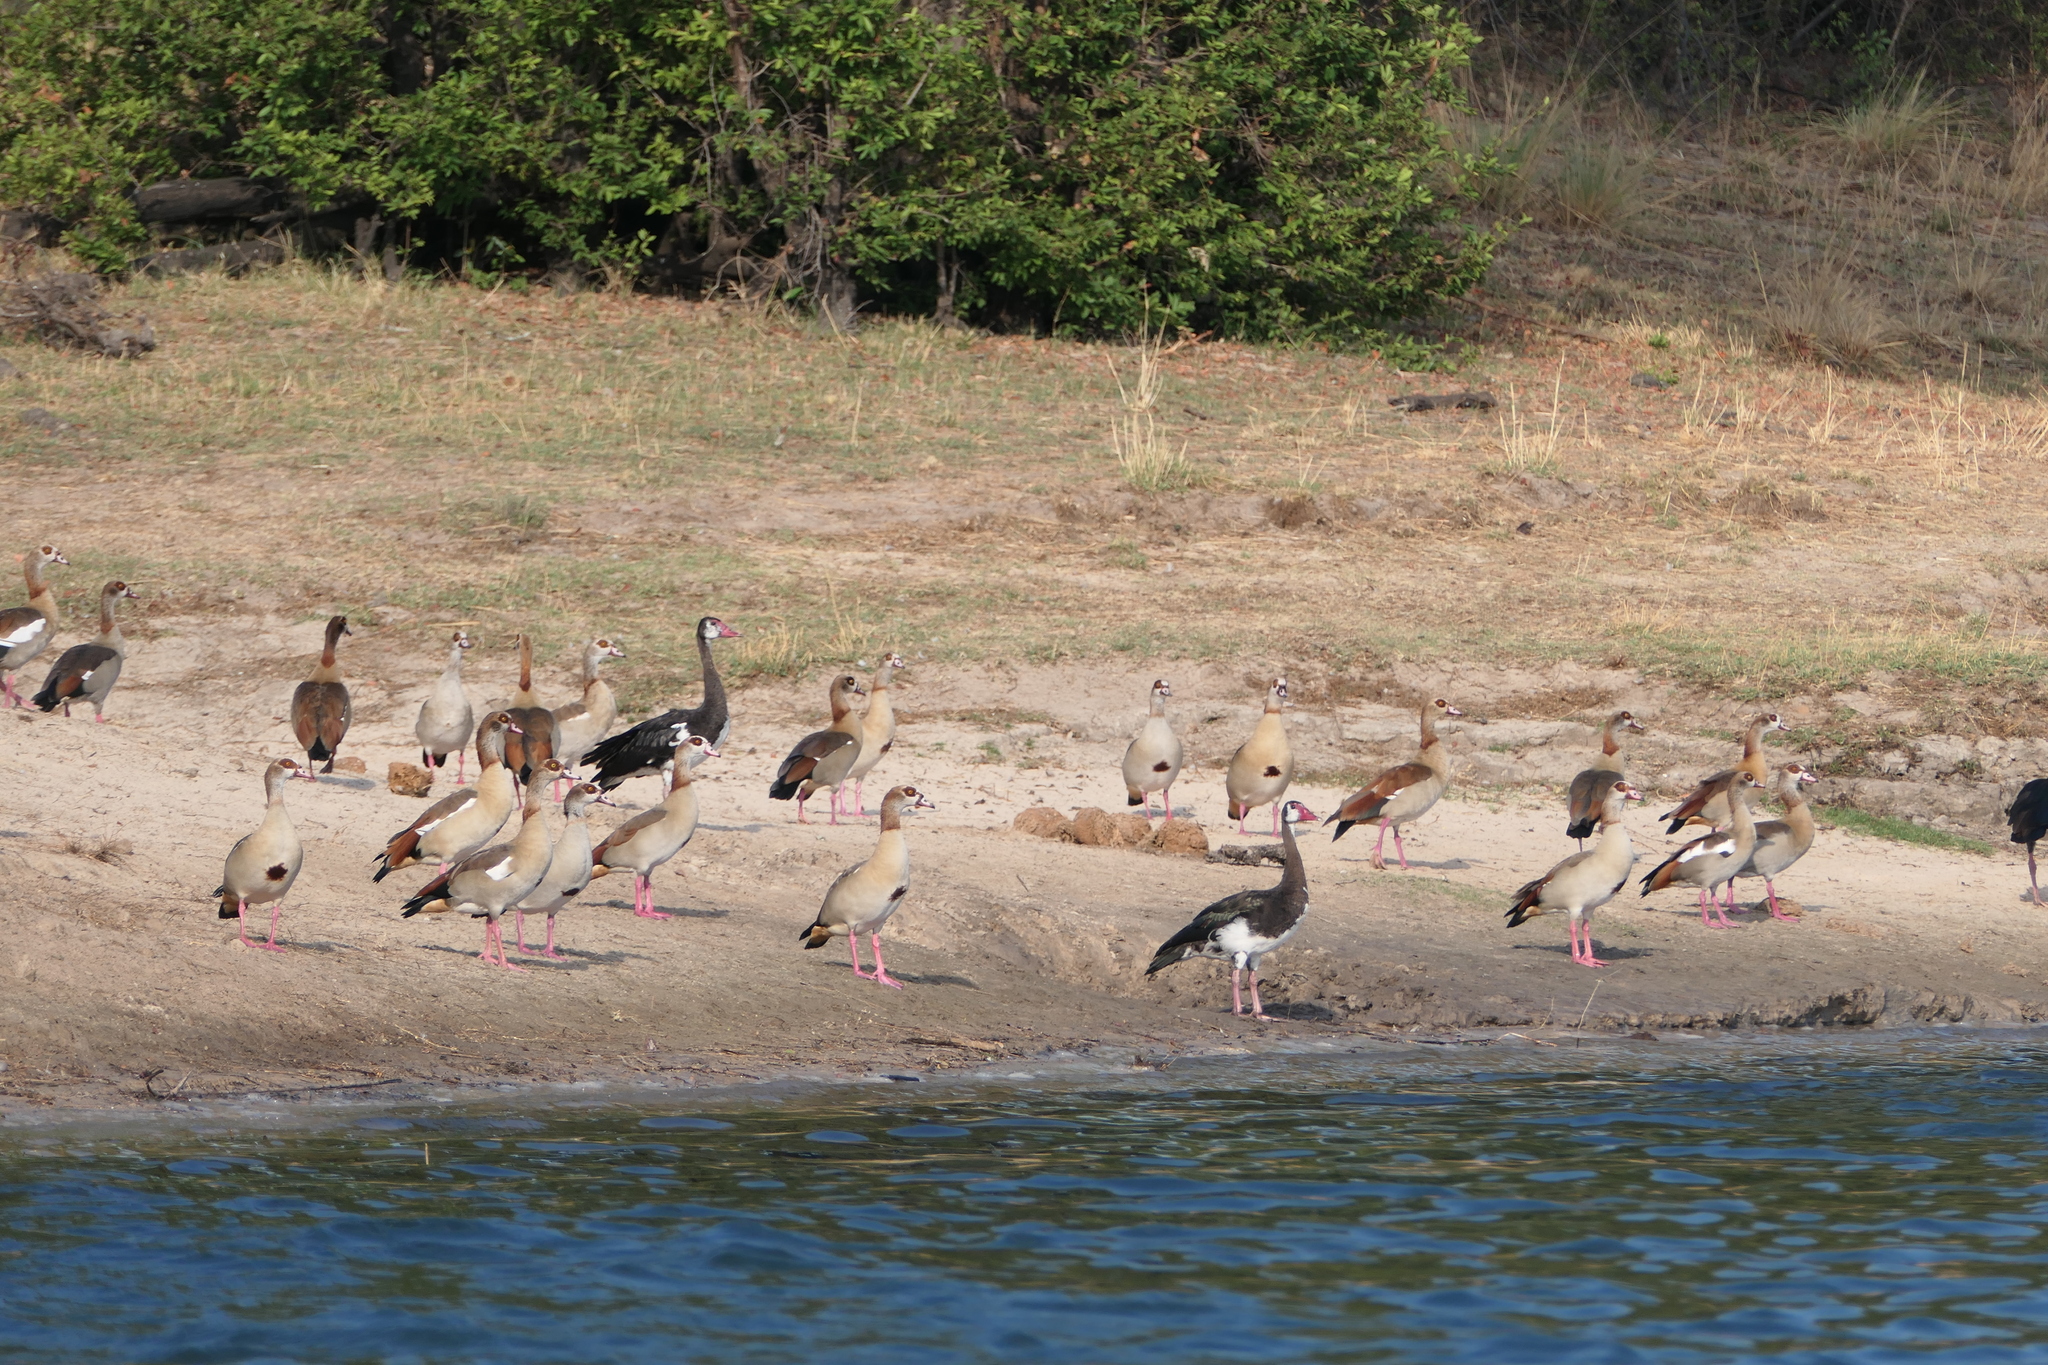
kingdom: Animalia
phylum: Chordata
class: Aves
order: Anseriformes
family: Anatidae
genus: Plectropterus
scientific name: Plectropterus gambensis
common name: Spur-winged goose
